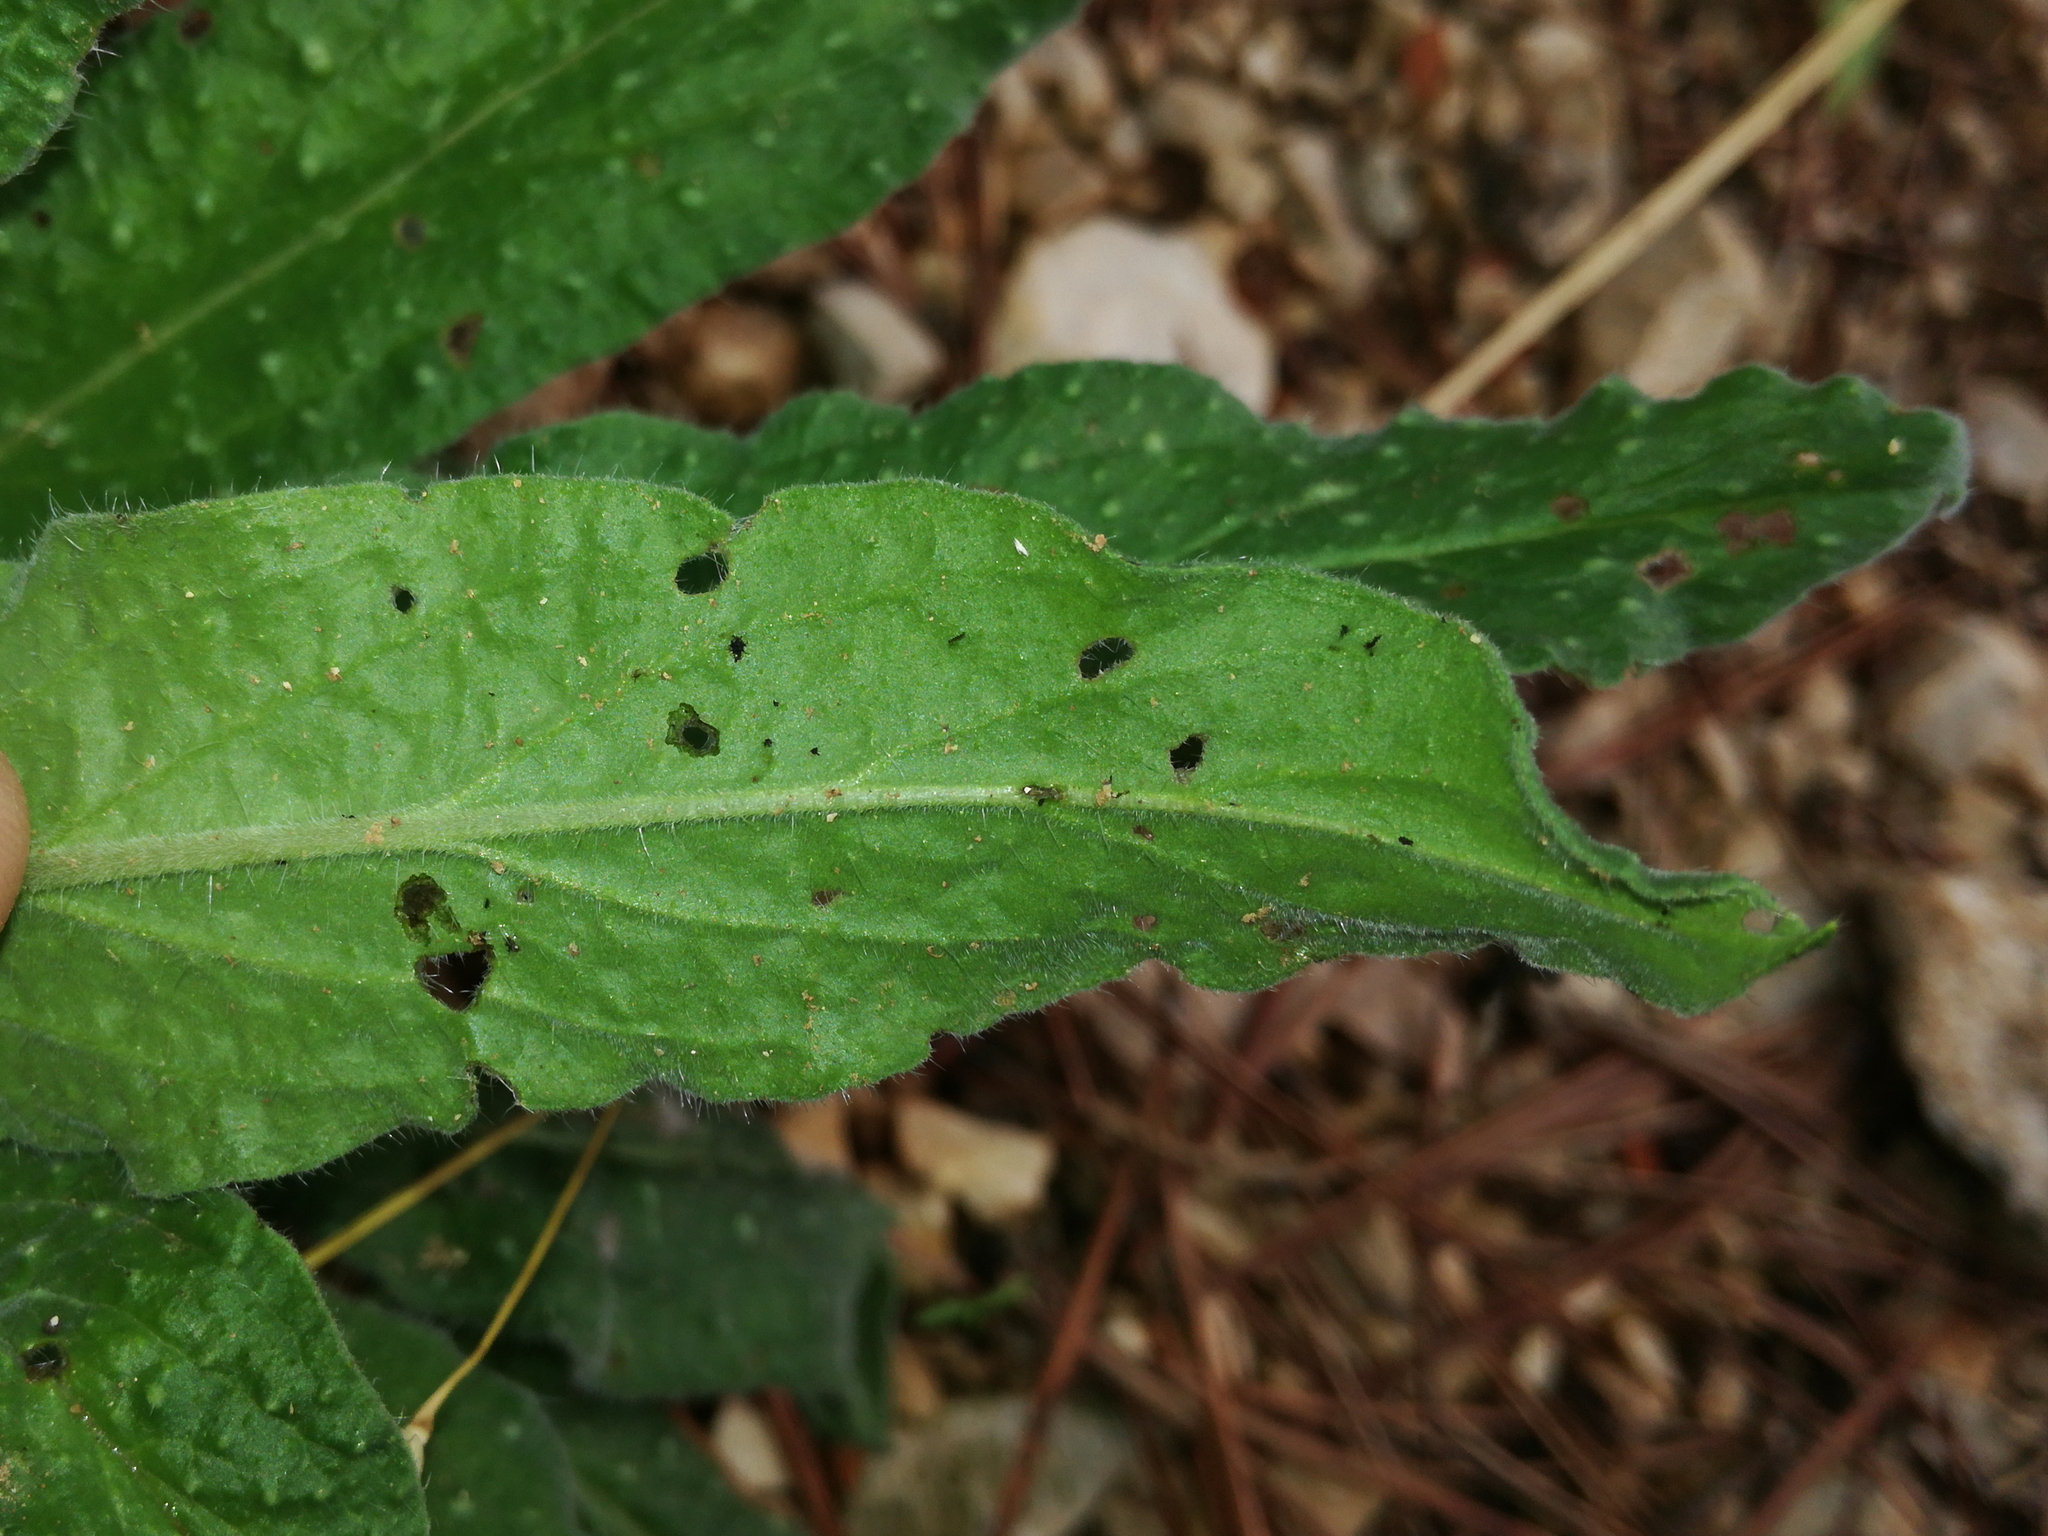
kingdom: Plantae
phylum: Tracheophyta
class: Magnoliopsida
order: Boraginales
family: Boraginaceae
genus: Echium
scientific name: Echium vulgare
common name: Common viper's bugloss
